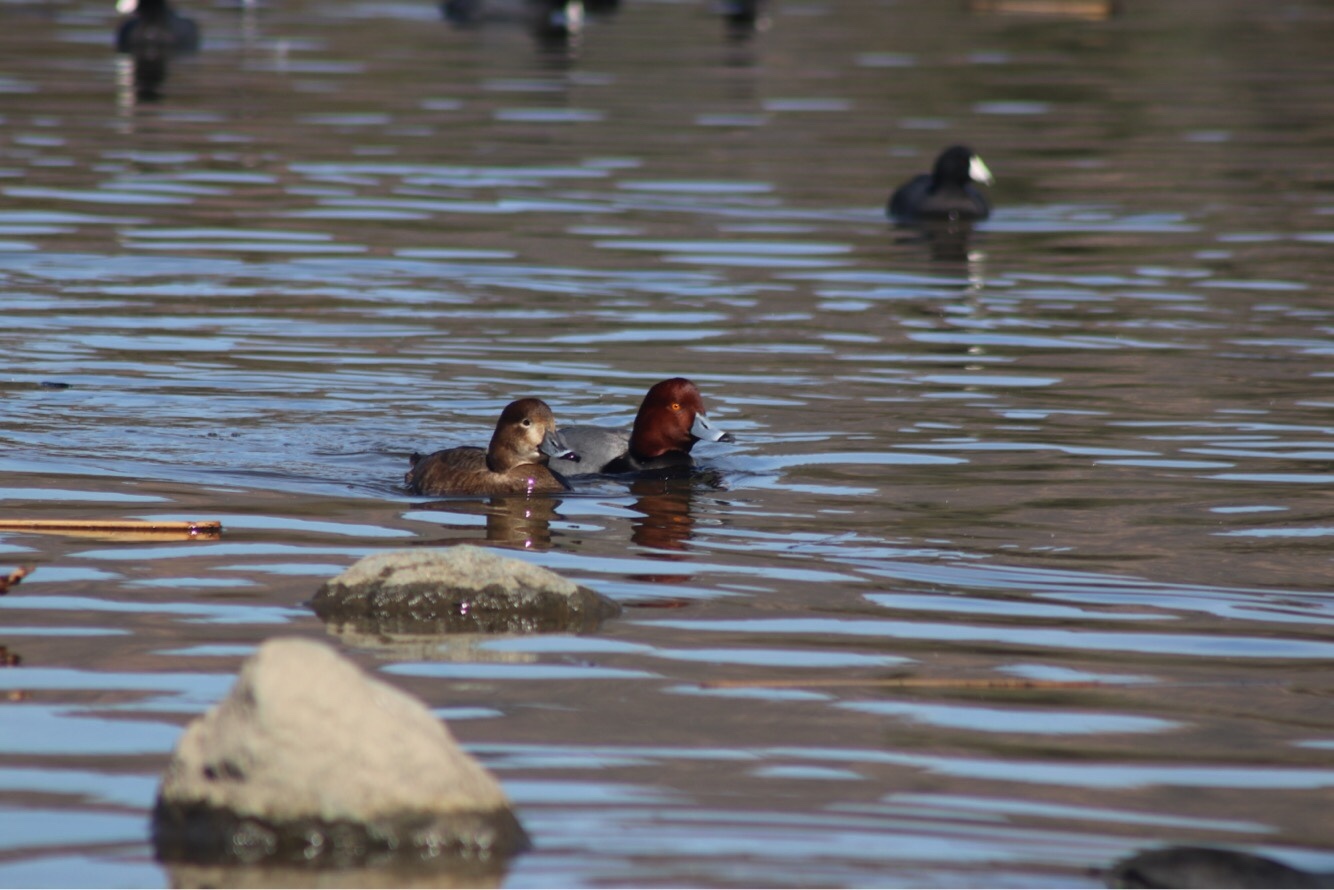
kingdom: Animalia
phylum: Chordata
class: Aves
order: Anseriformes
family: Anatidae
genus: Aythya
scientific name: Aythya americana
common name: Redhead
